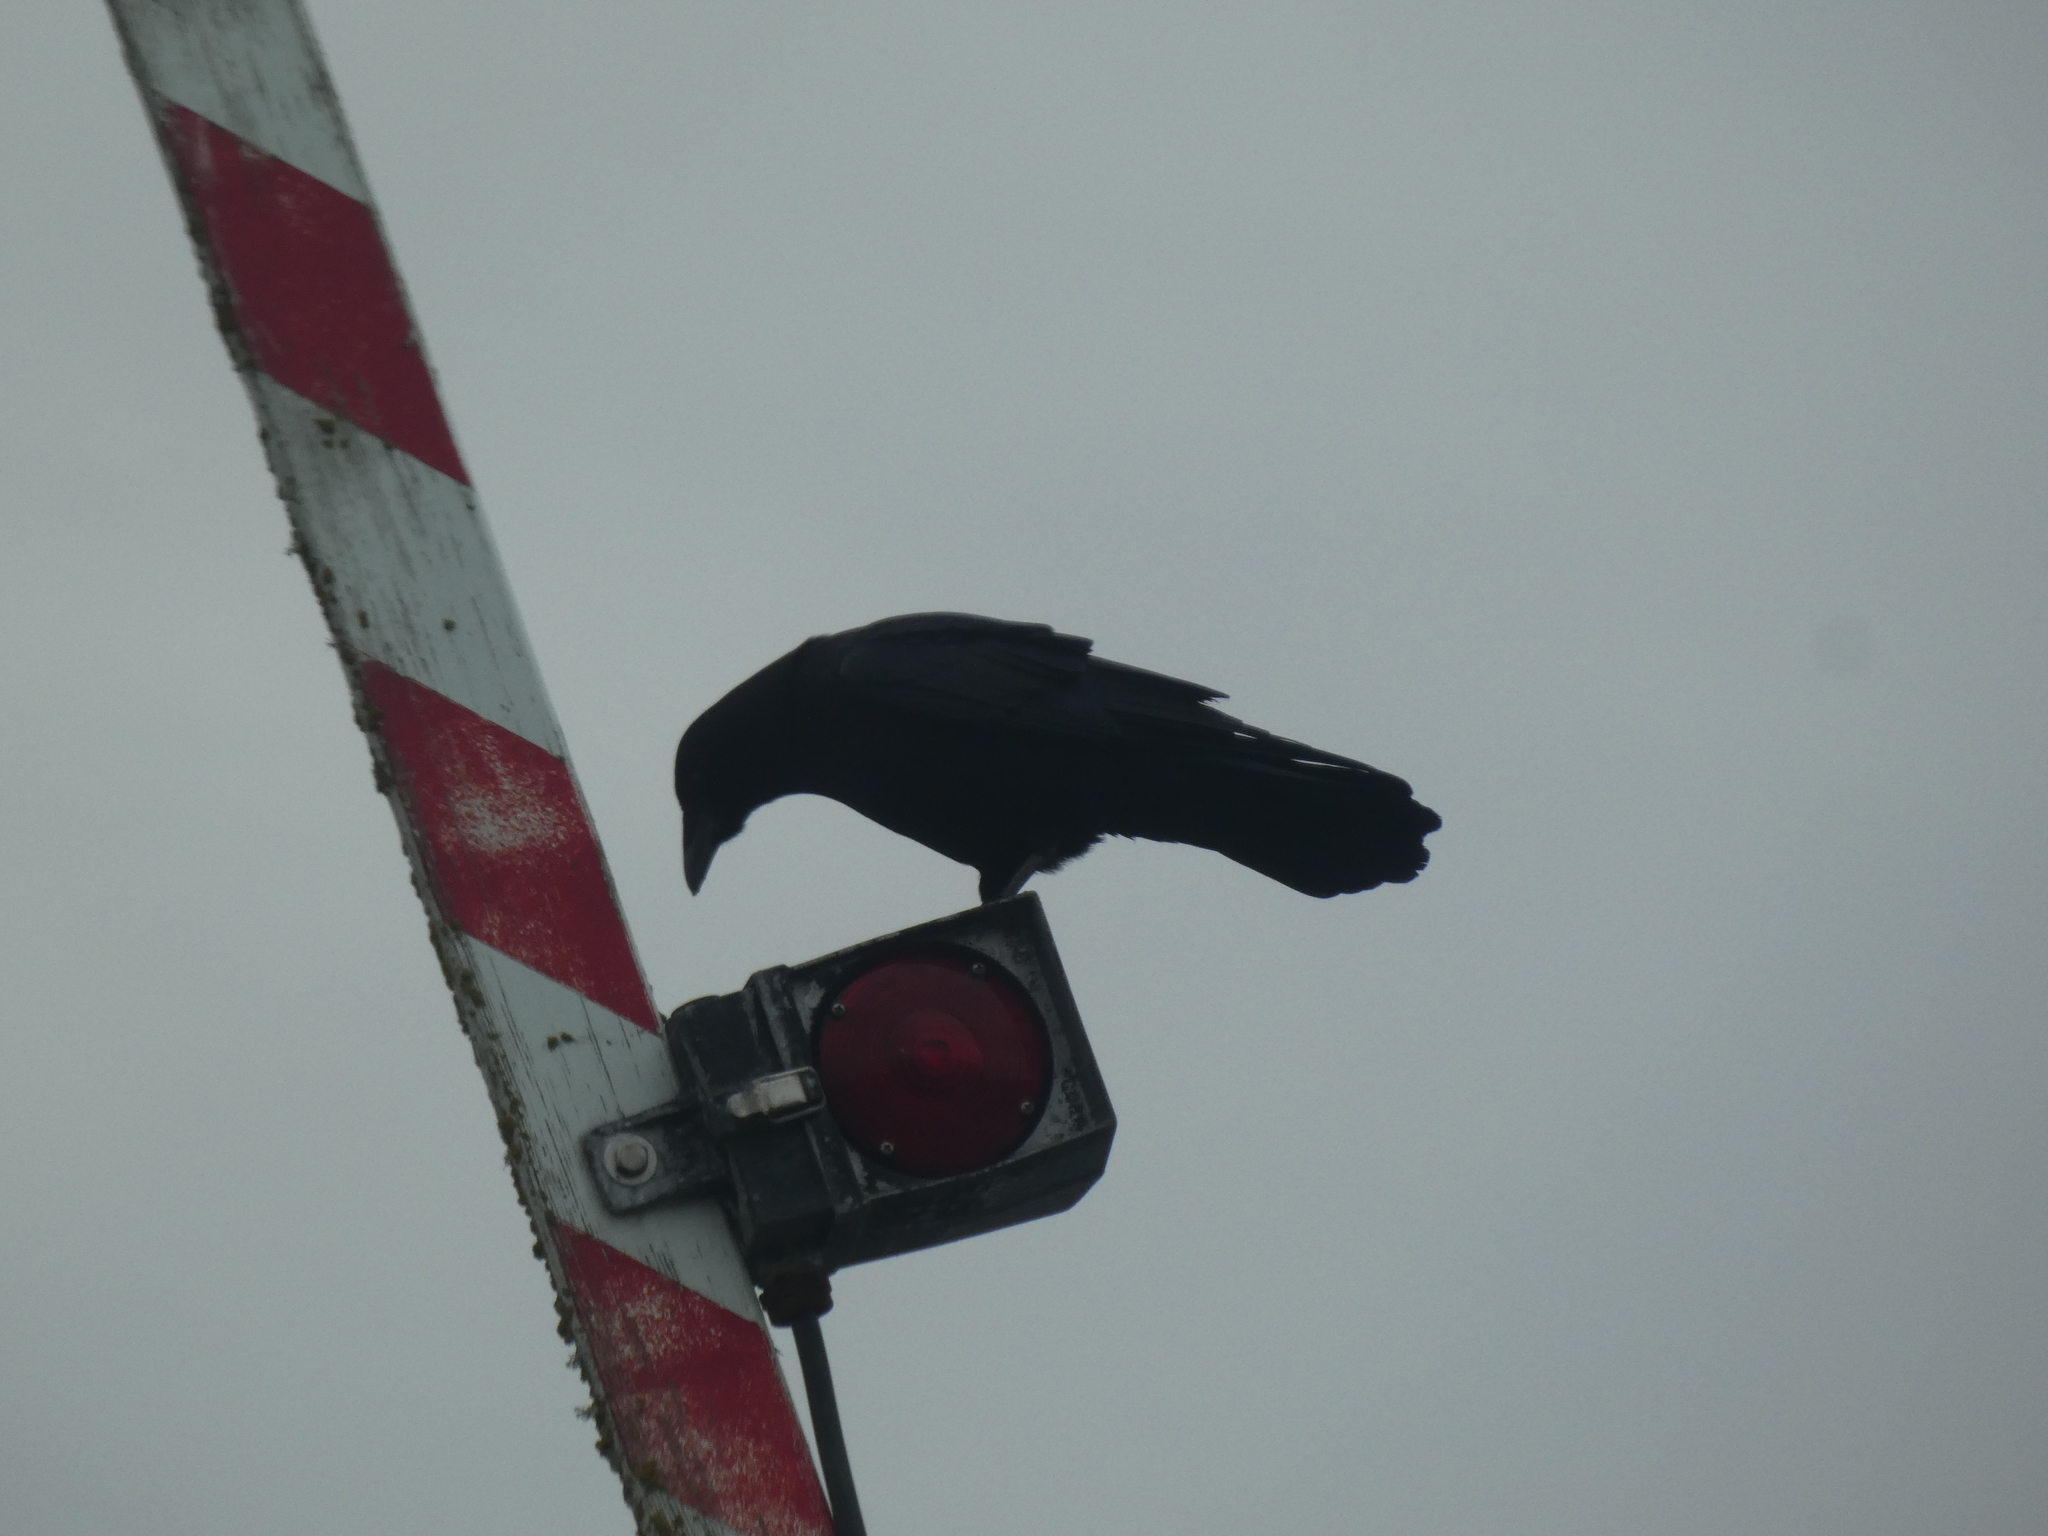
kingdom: Animalia
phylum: Chordata
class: Aves
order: Passeriformes
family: Corvidae
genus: Corvus
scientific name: Corvus brachyrhynchos
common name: American crow
